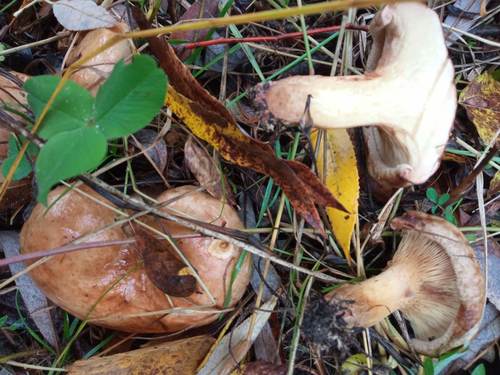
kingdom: Fungi
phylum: Basidiomycota
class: Agaricomycetes
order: Boletales
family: Paxillaceae
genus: Paxillus
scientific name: Paxillus involutus
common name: Brown roll rim
